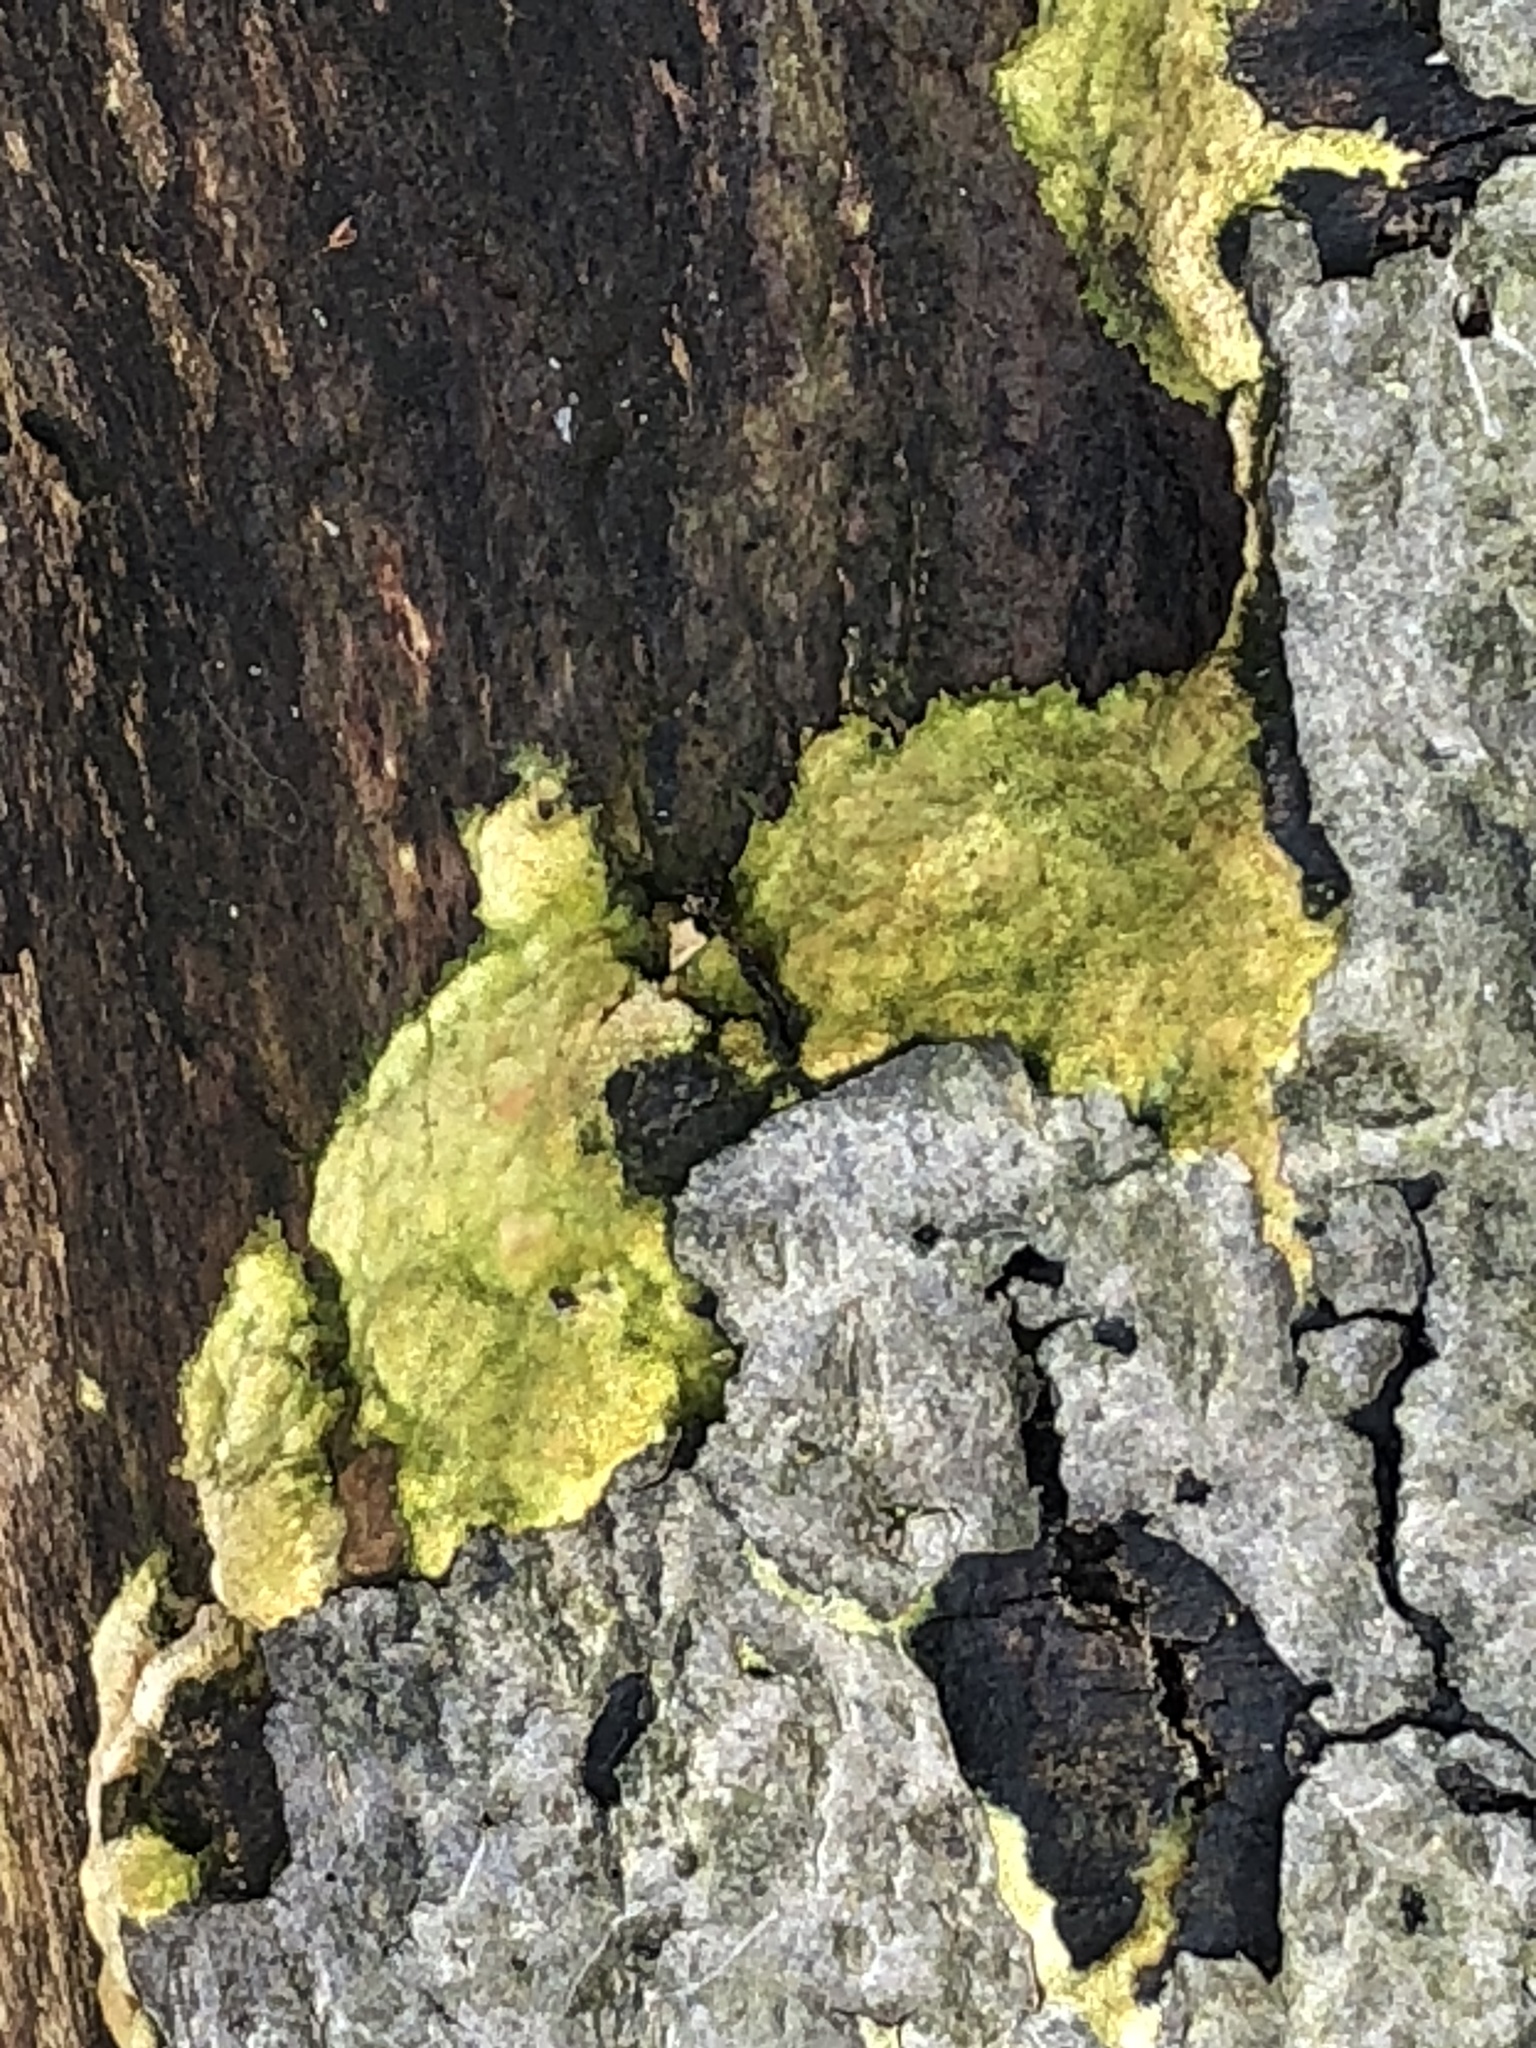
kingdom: Protozoa
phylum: Mycetozoa
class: Myxomycetes
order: Physarales
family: Physaraceae
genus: Fuligo
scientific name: Fuligo septica
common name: Dog vomit slime mold
